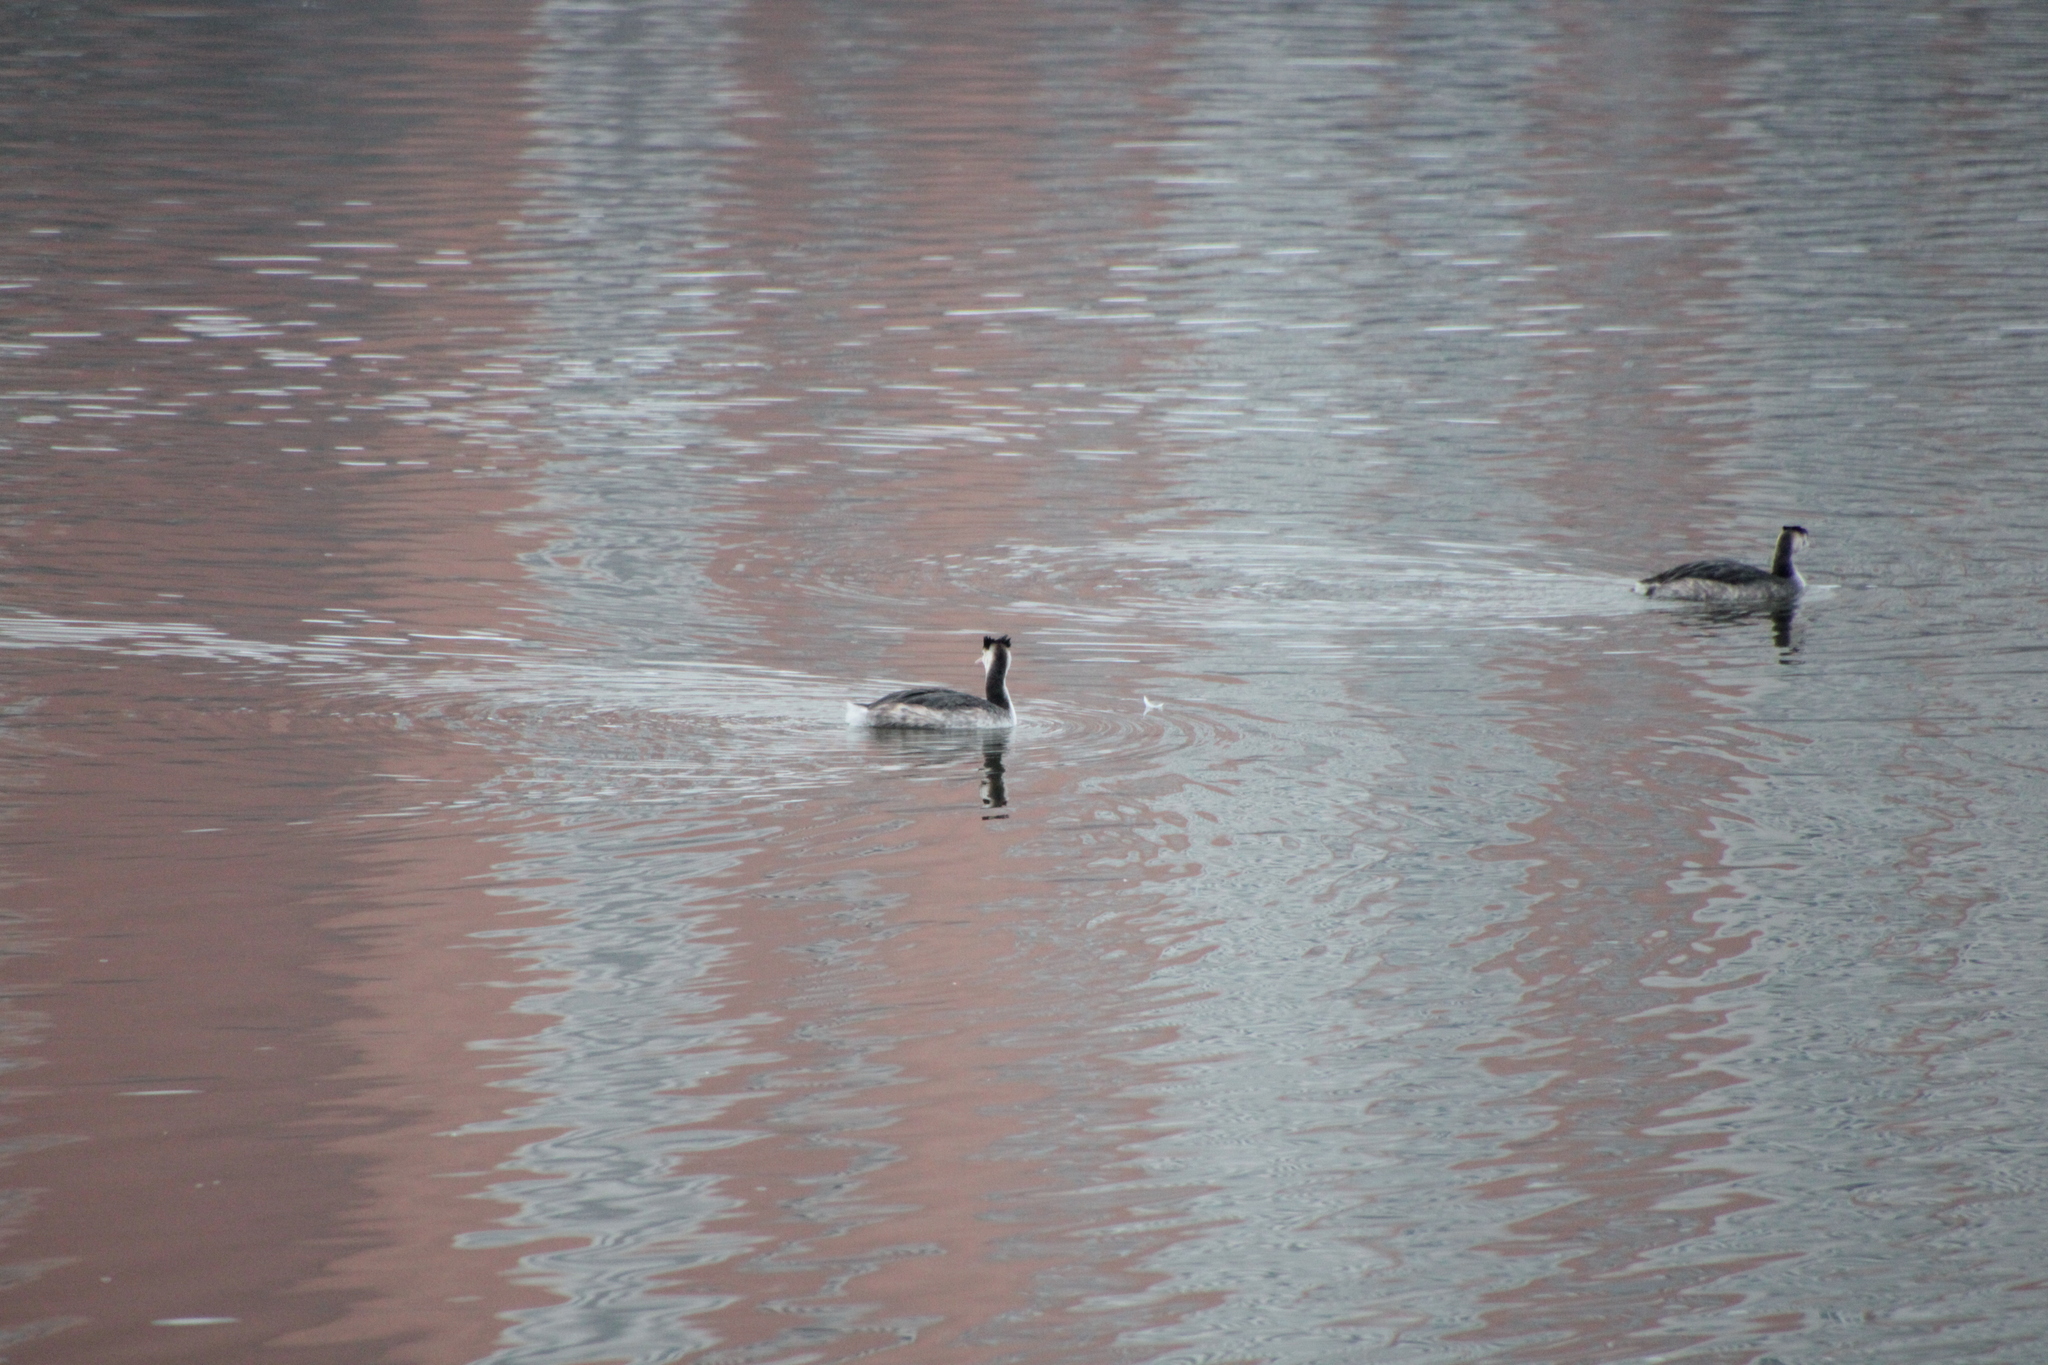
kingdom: Animalia
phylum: Chordata
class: Aves
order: Podicipediformes
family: Podicipedidae
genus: Podiceps
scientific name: Podiceps cristatus
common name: Great crested grebe
